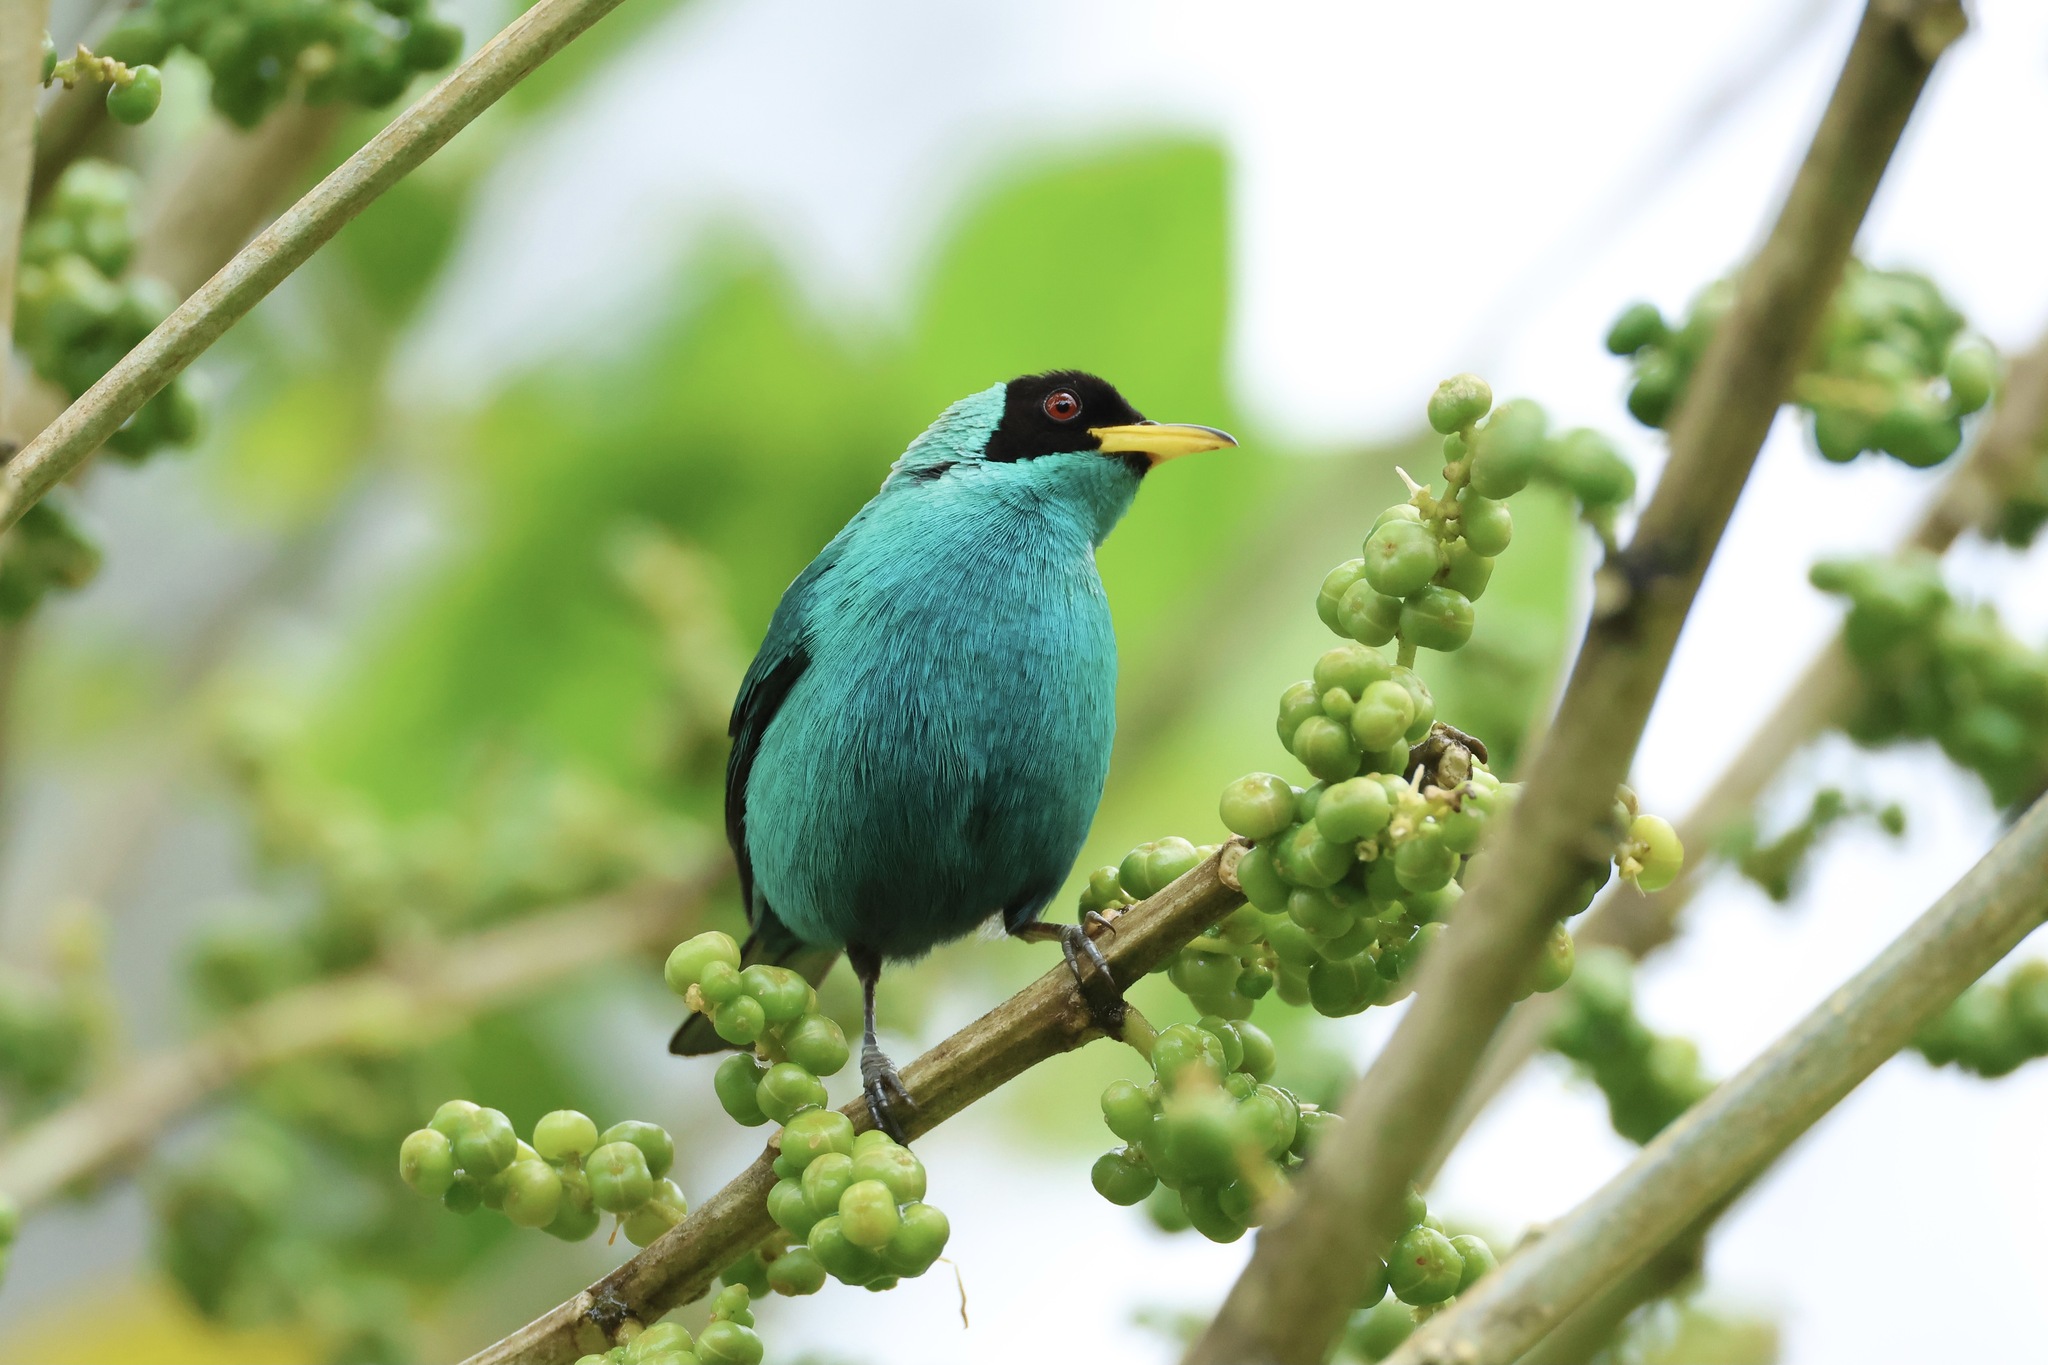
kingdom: Animalia
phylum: Chordata
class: Aves
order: Passeriformes
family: Thraupidae
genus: Chlorophanes
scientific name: Chlorophanes spiza
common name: Green honeycreeper
